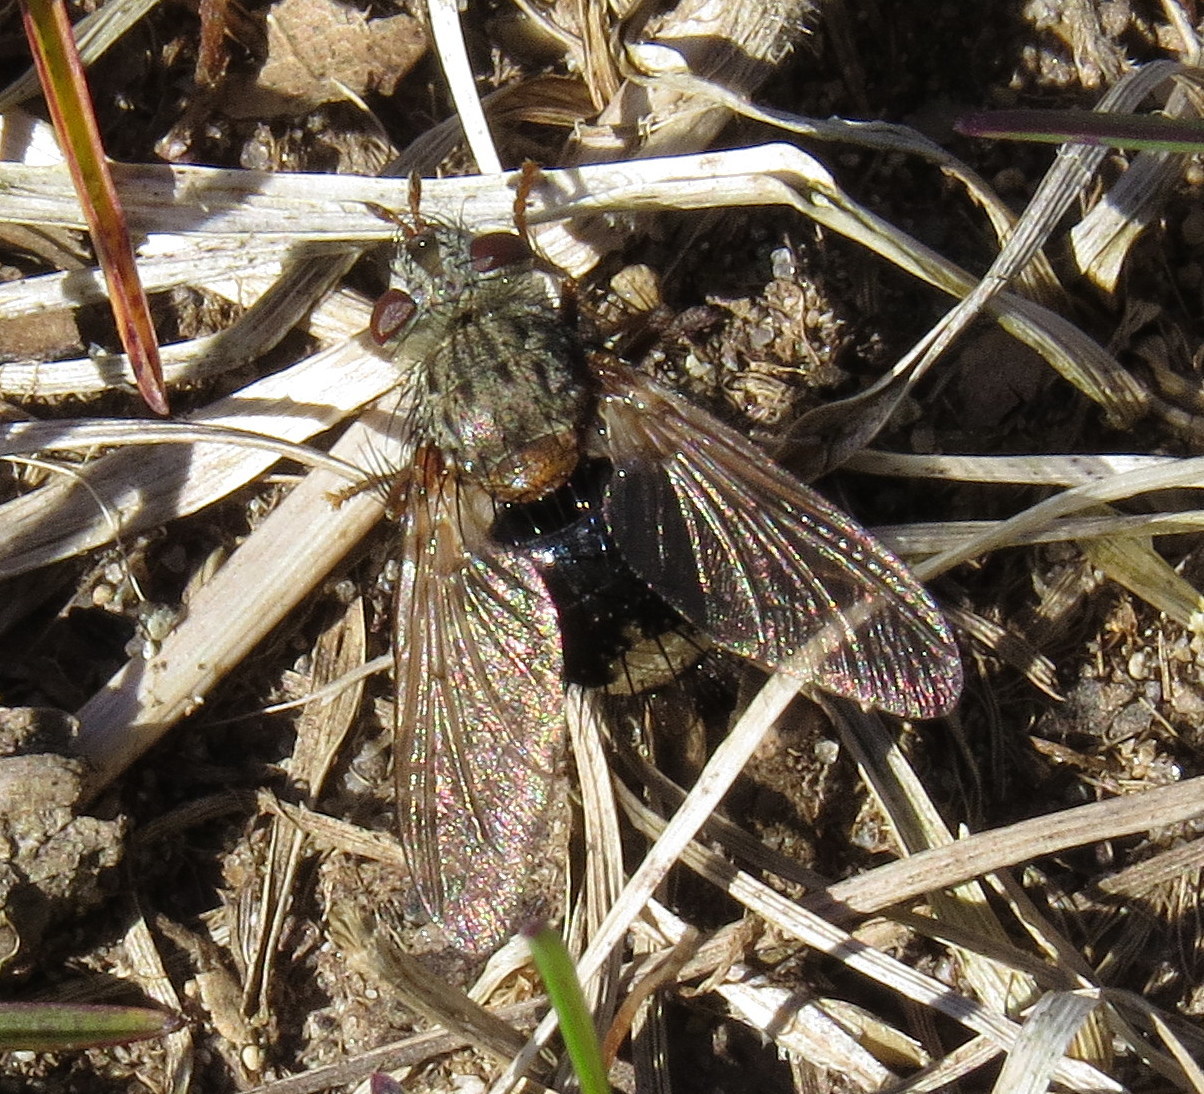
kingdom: Animalia
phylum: Arthropoda
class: Insecta
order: Diptera
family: Tachinidae
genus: Epalpus
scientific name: Epalpus signifer
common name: Early tachinid fly
